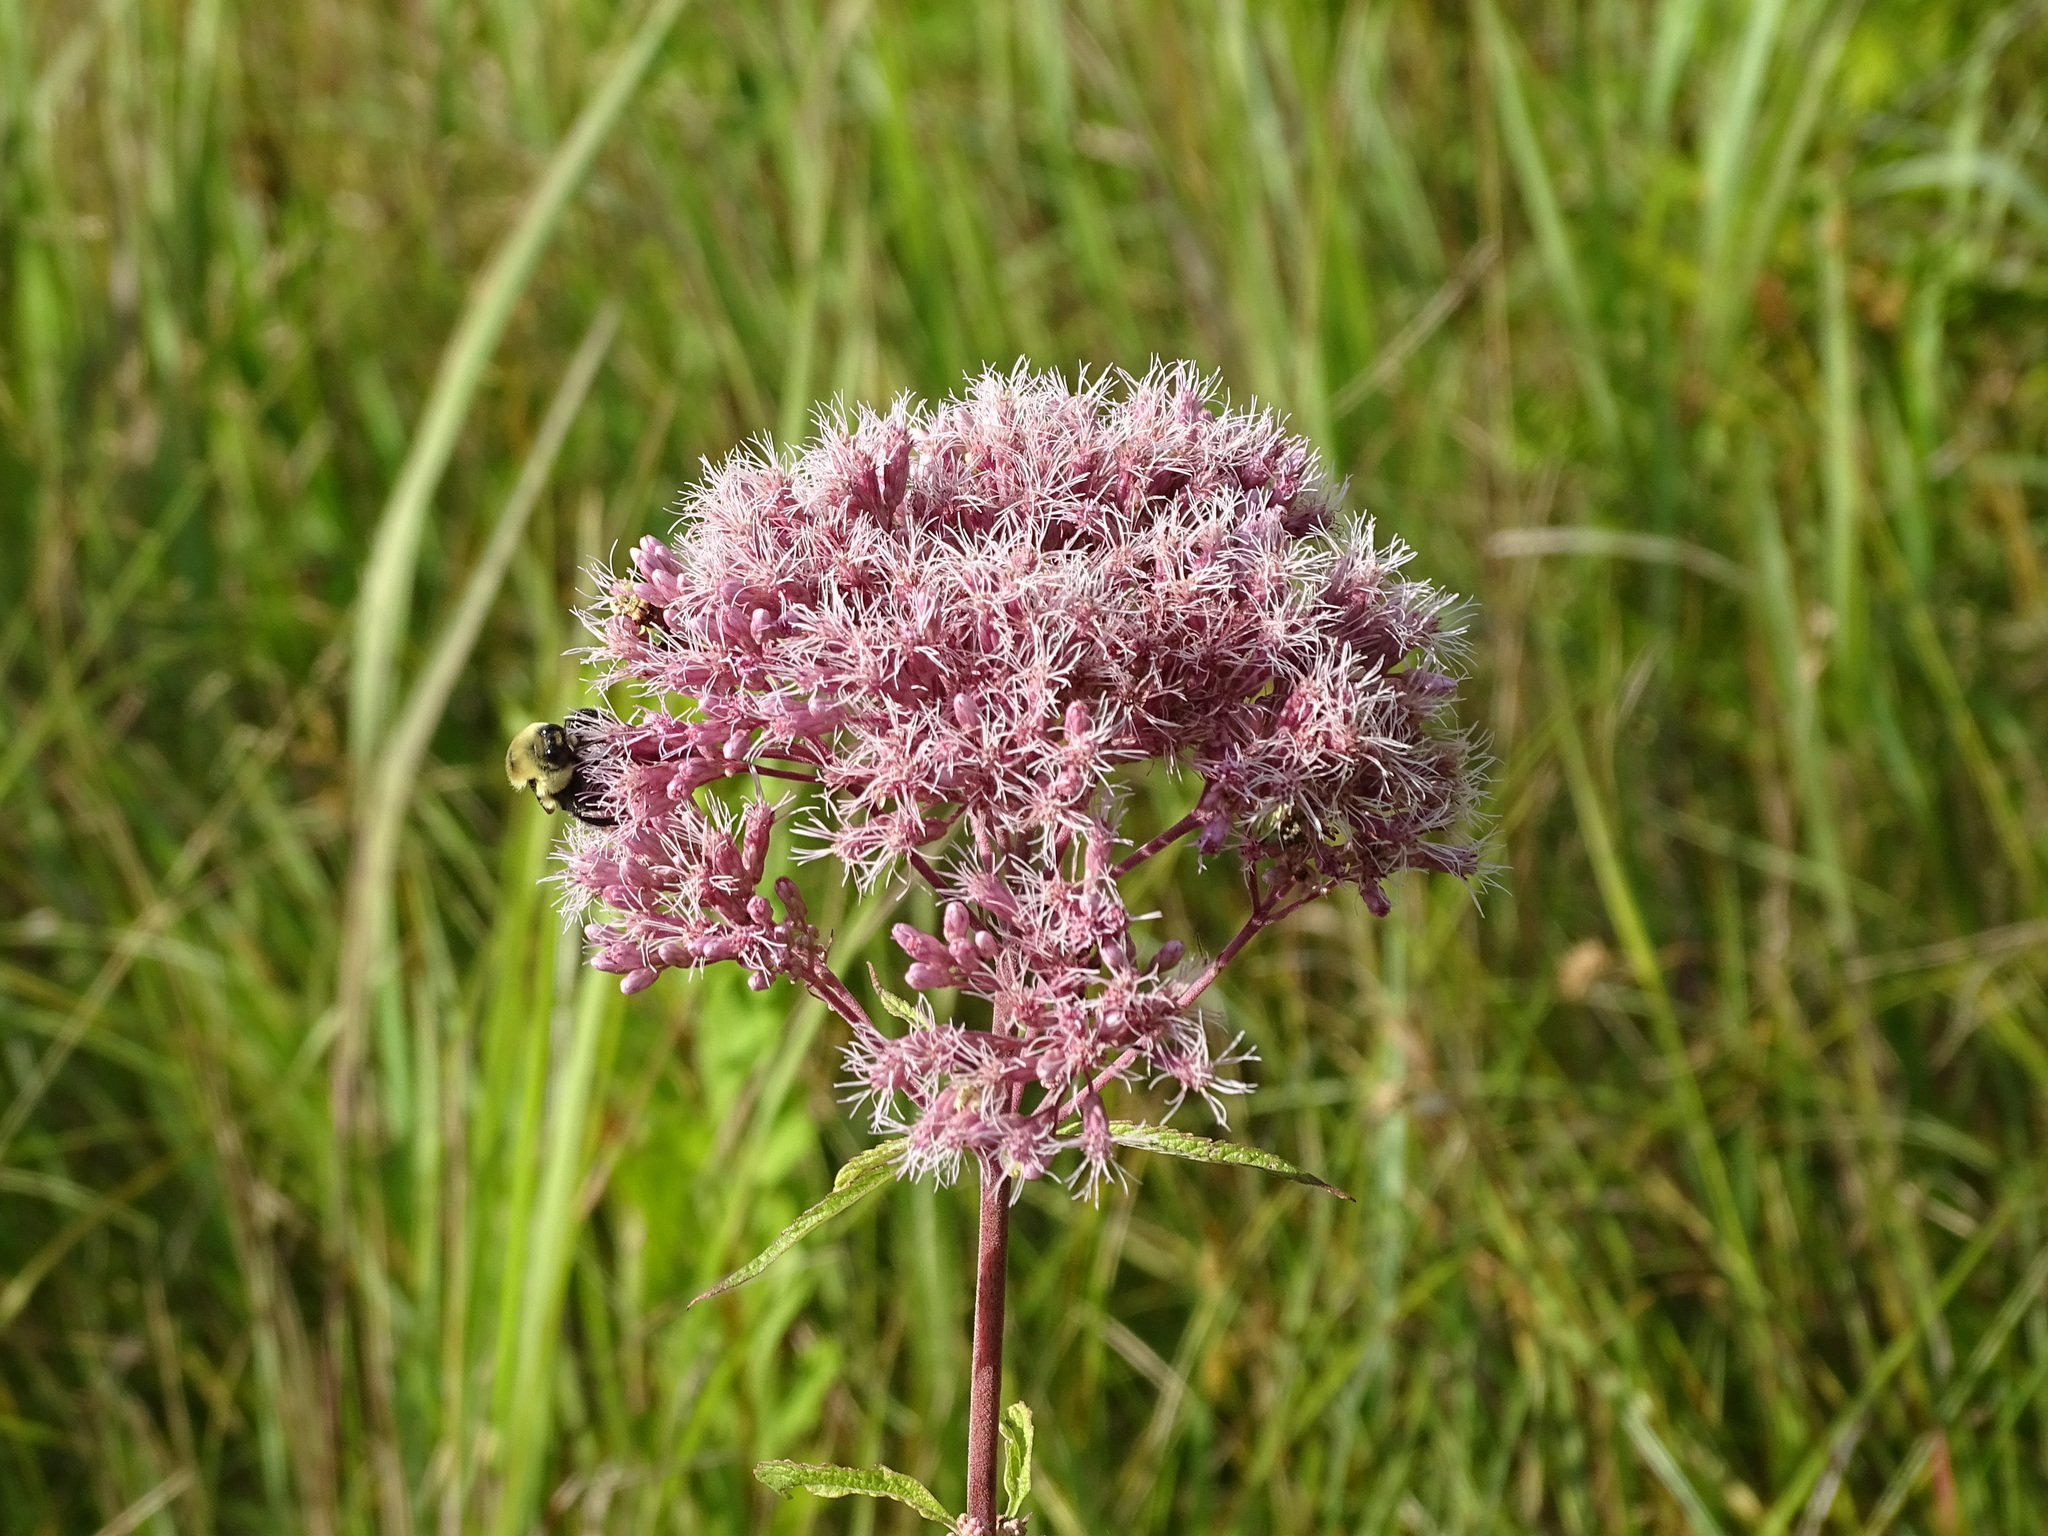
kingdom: Plantae
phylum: Tracheophyta
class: Magnoliopsida
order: Asterales
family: Asteraceae
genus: Eutrochium
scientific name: Eutrochium maculatum
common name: Spotted joe pye weed
